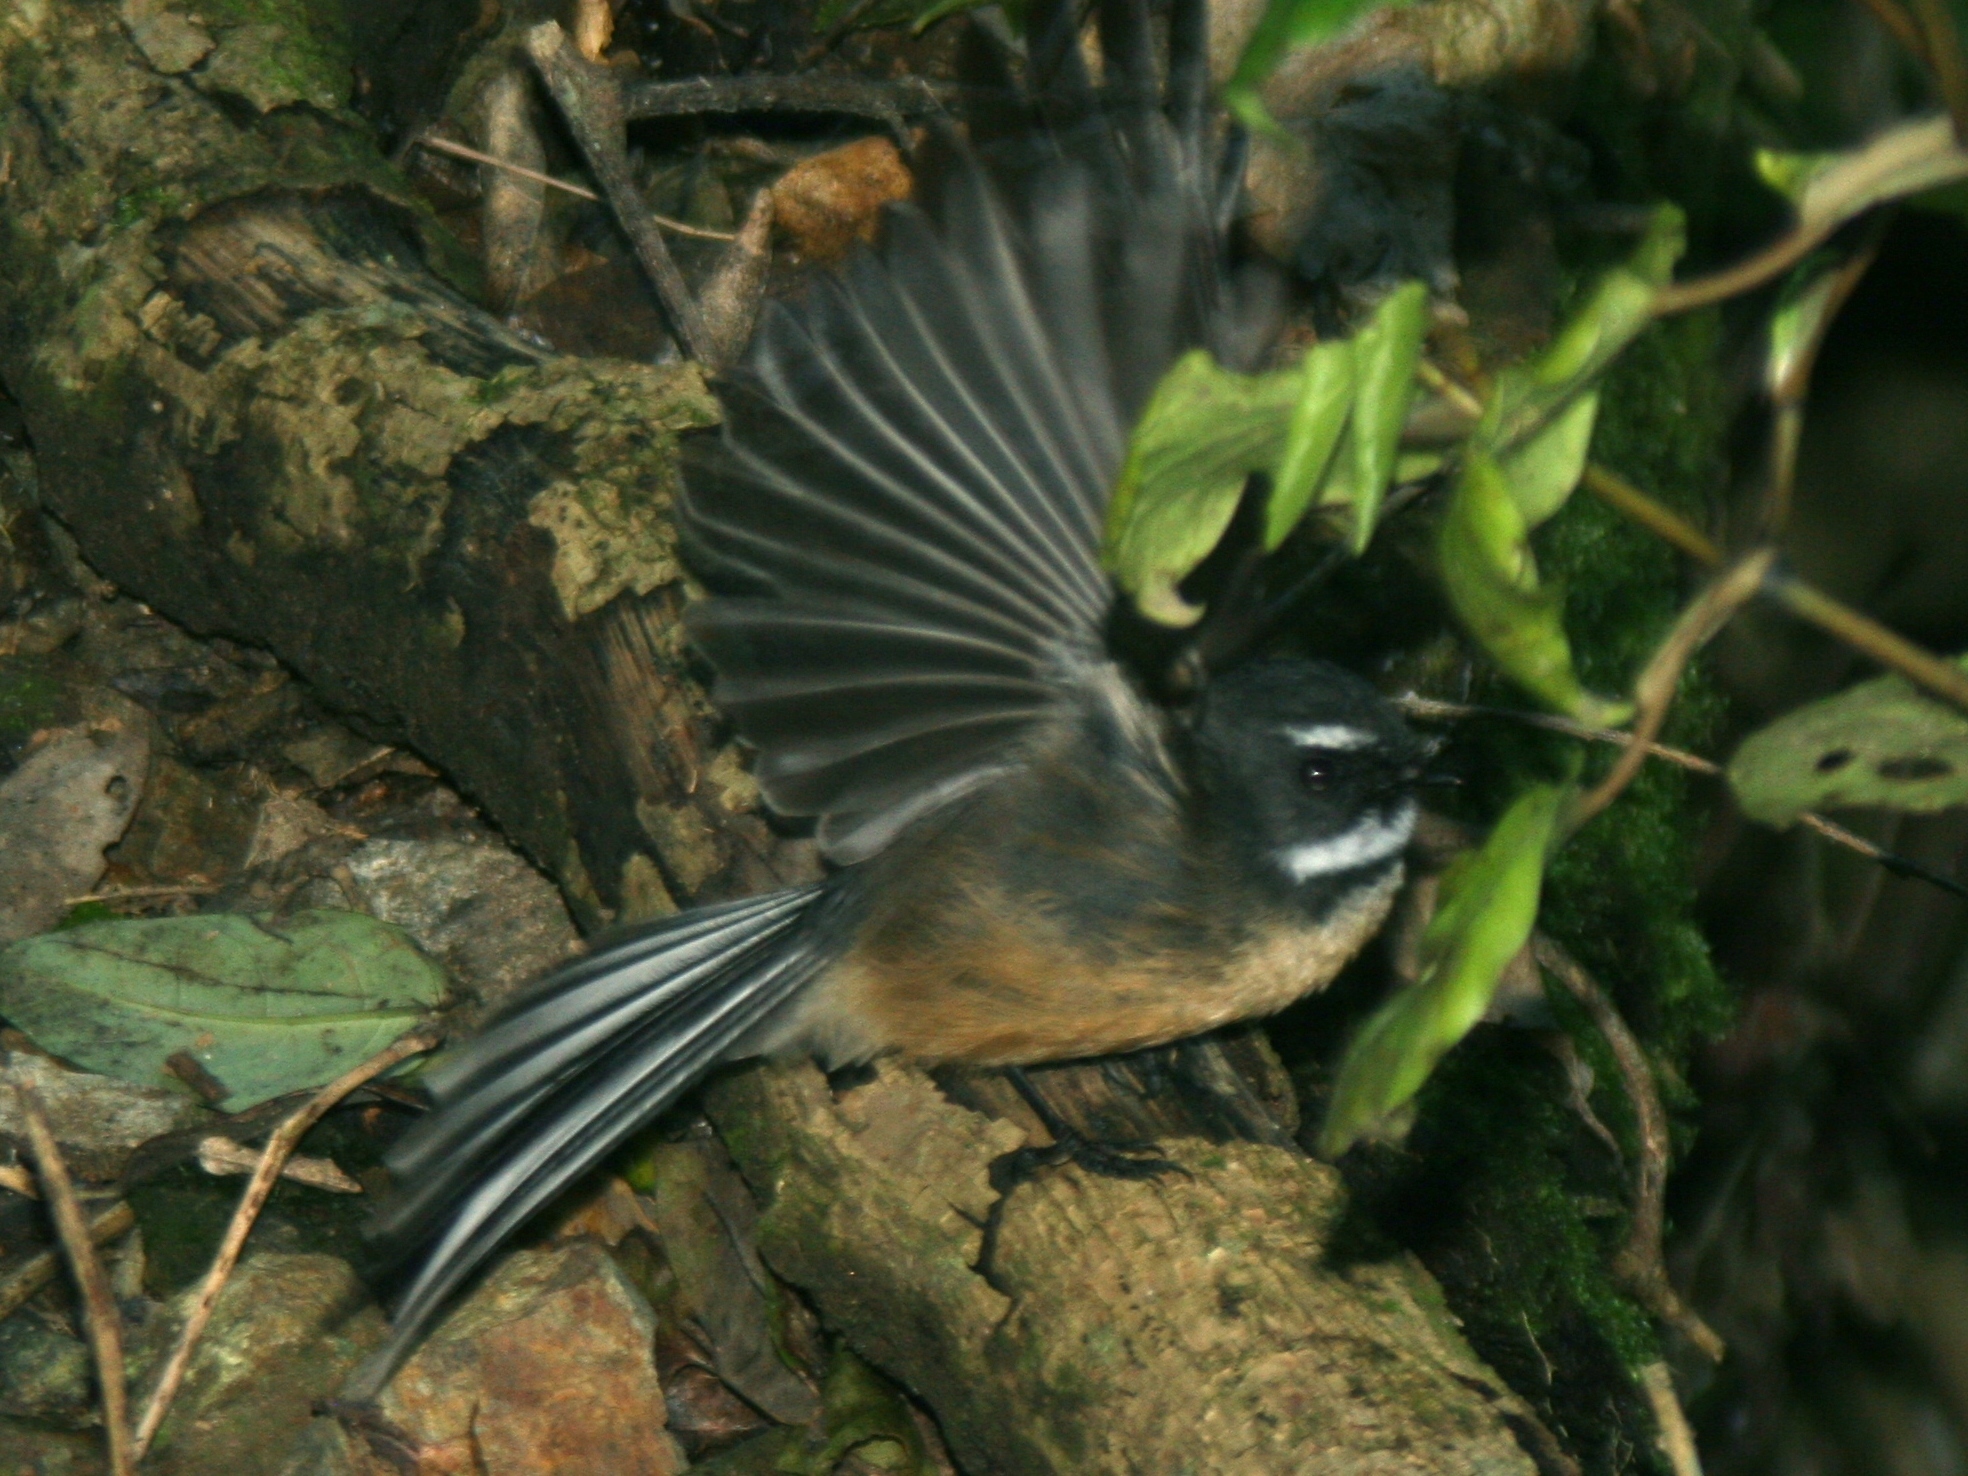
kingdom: Animalia
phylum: Chordata
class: Aves
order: Passeriformes
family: Rhipiduridae
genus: Rhipidura
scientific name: Rhipidura fuliginosa
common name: New zealand fantail
